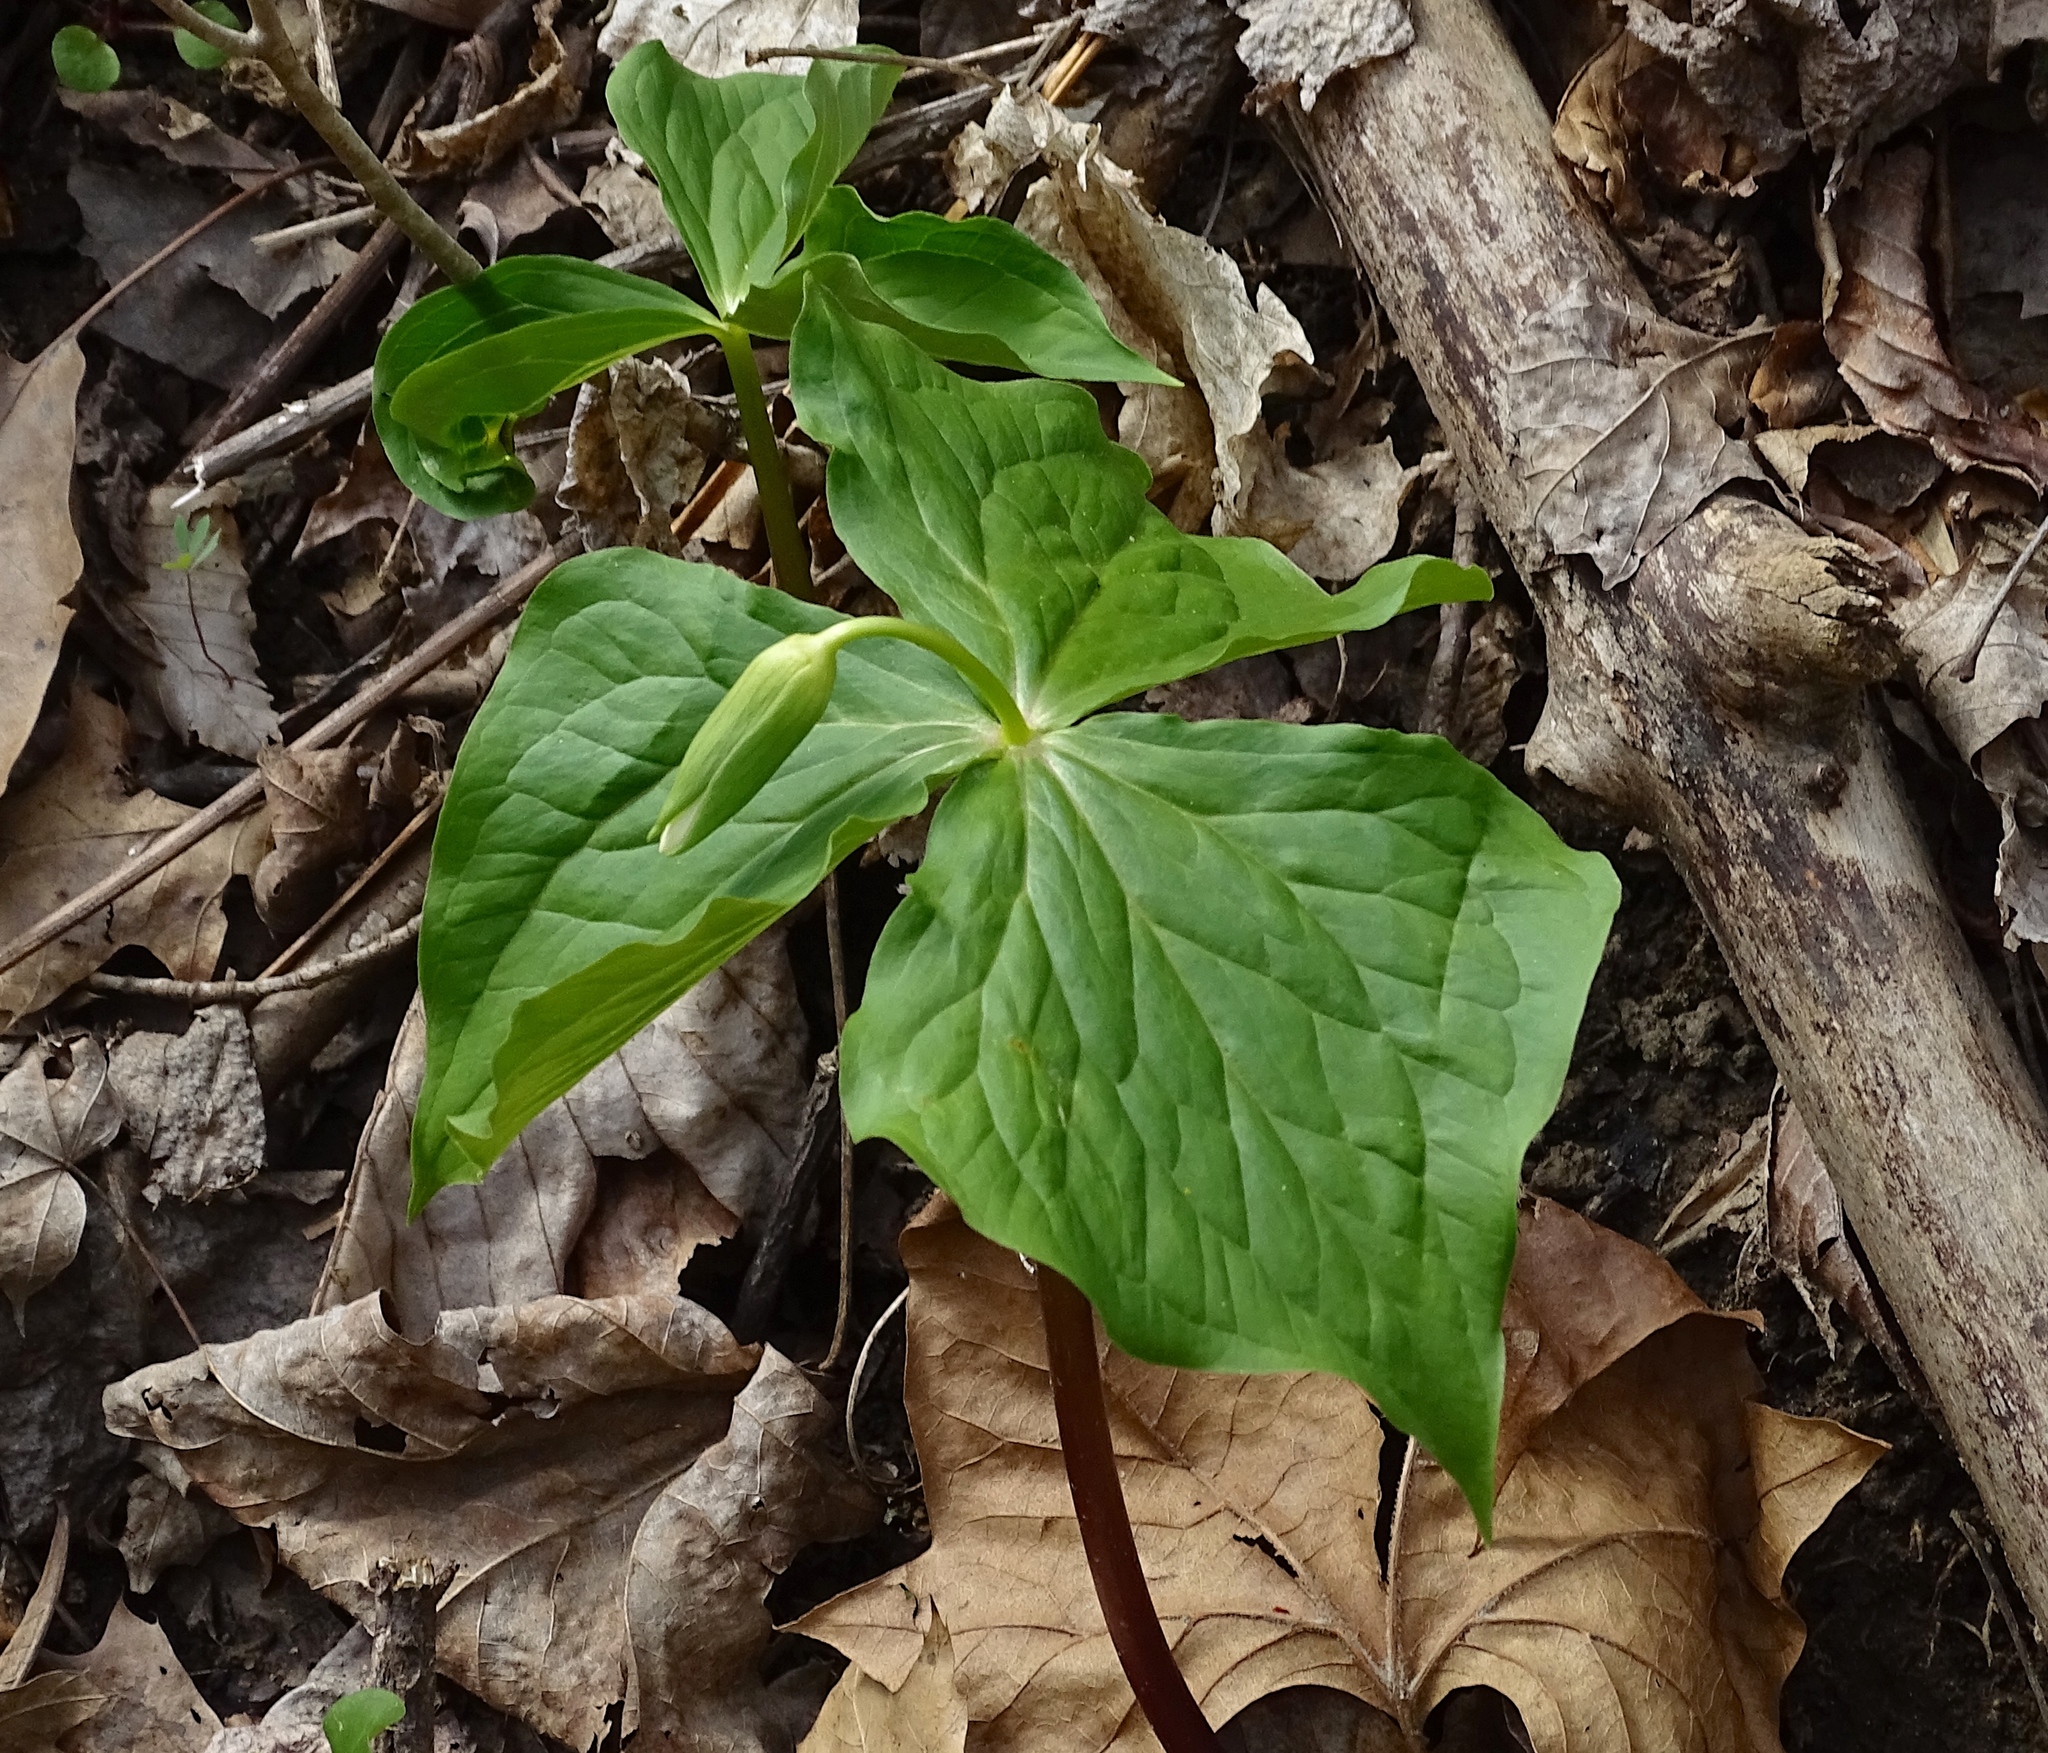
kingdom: Plantae
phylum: Tracheophyta
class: Liliopsida
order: Liliales
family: Melanthiaceae
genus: Trillium
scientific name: Trillium flexipes
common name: Drooping trillium
